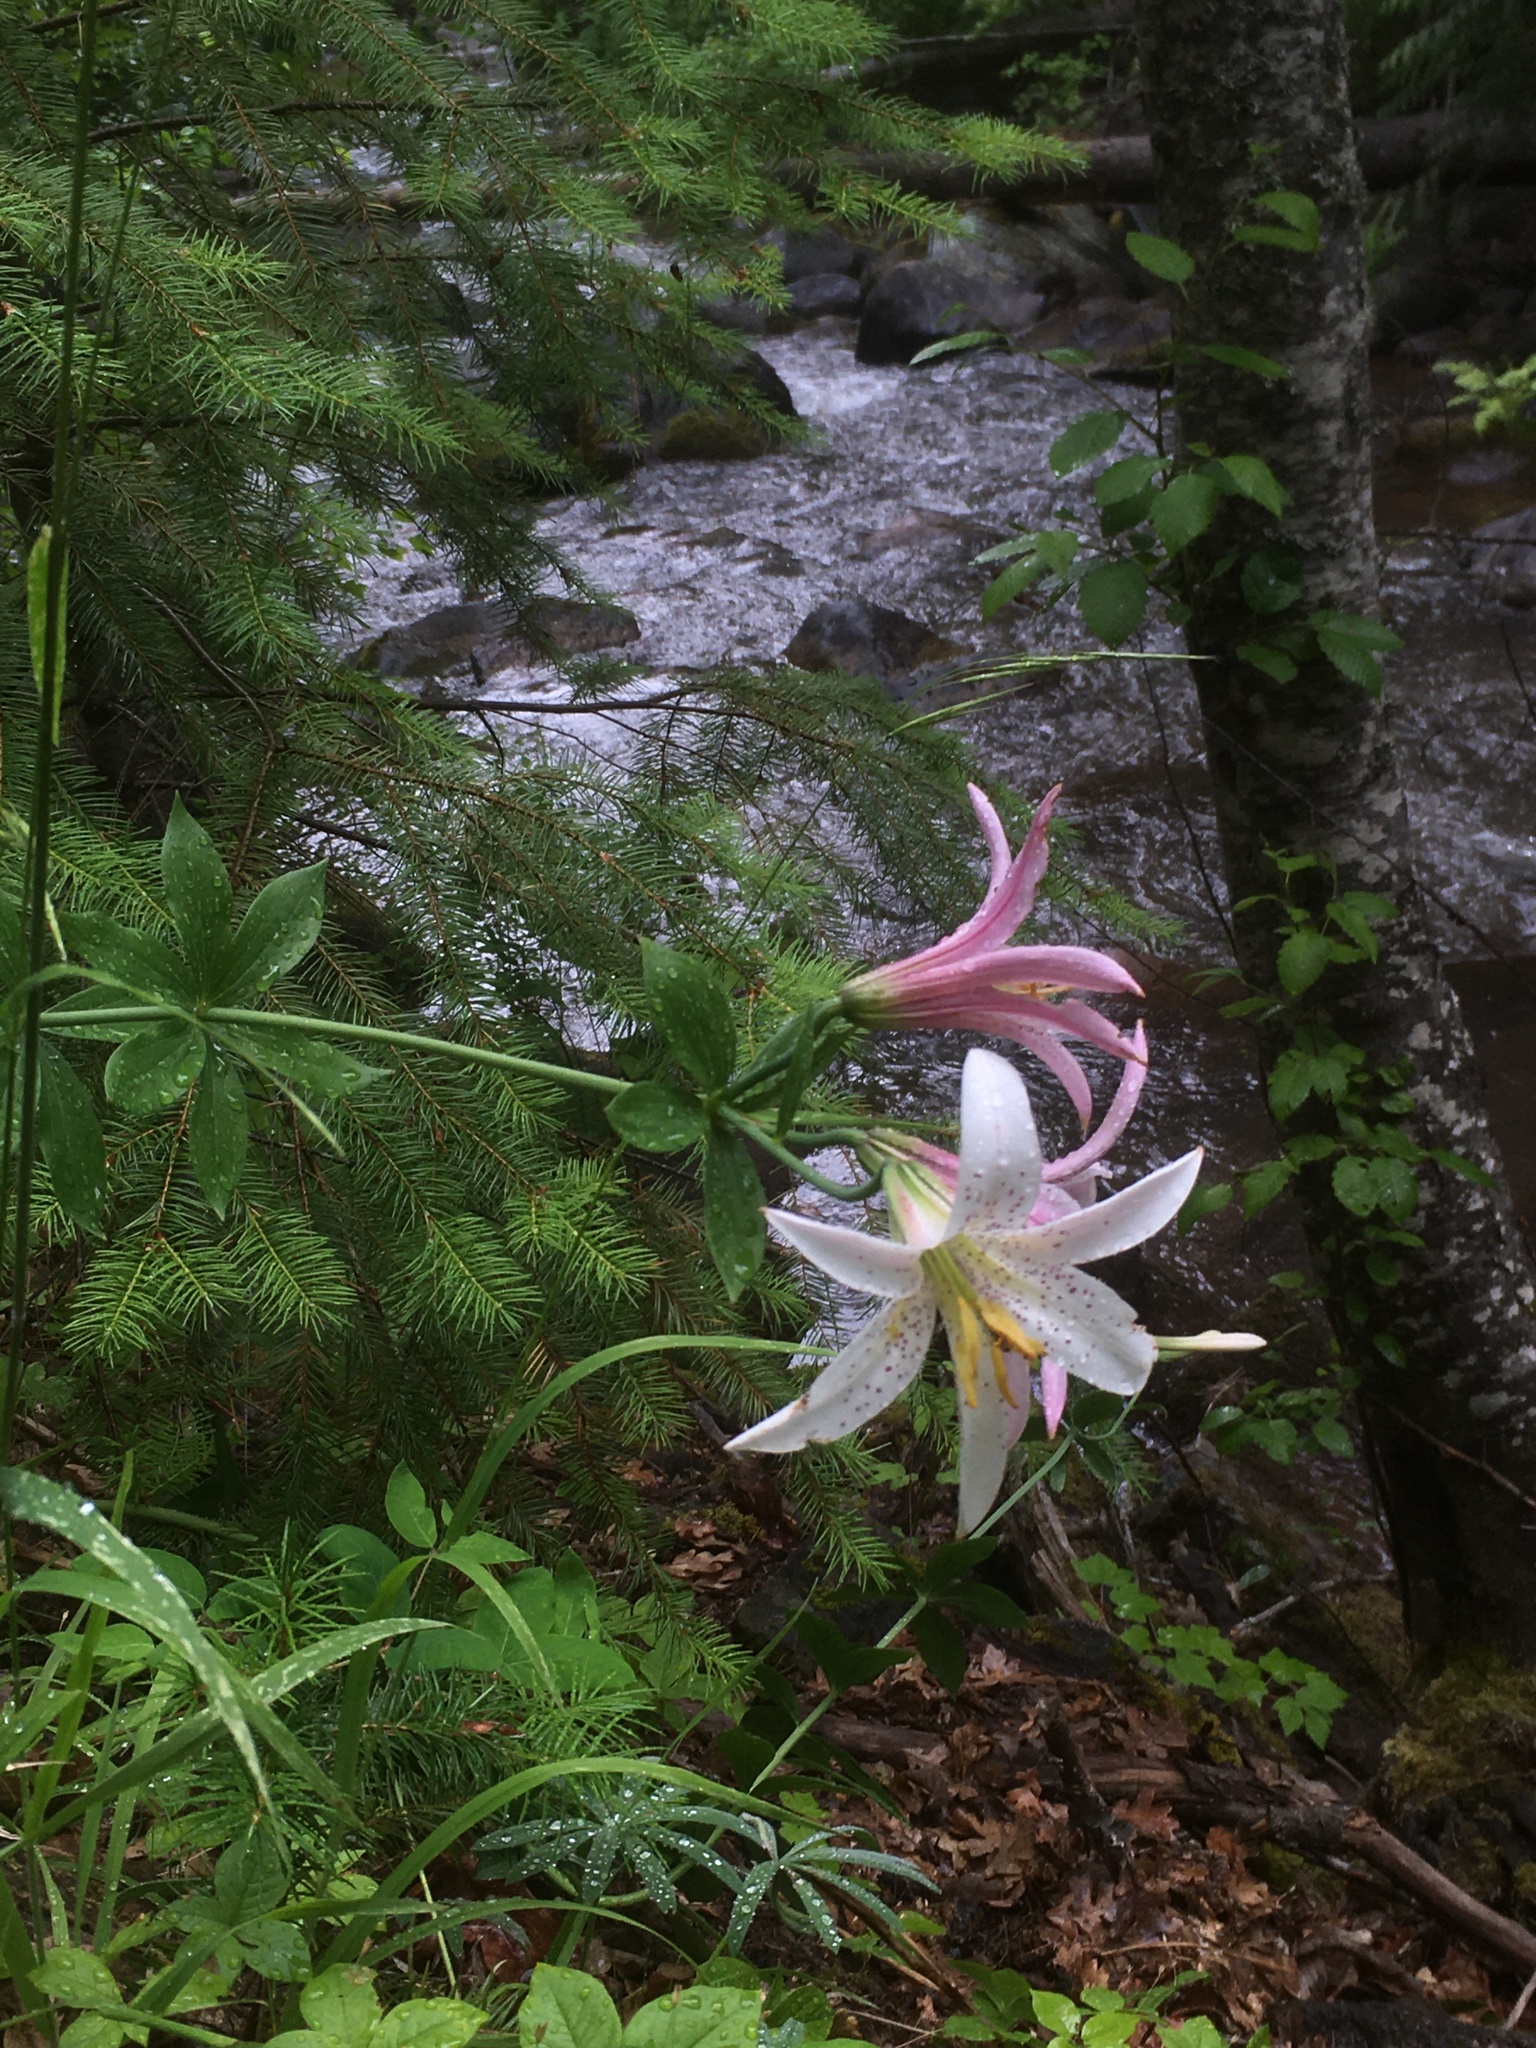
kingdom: Plantae
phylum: Tracheophyta
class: Liliopsida
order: Liliales
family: Liliaceae
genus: Lilium
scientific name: Lilium washingtonianum
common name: Washington lily
